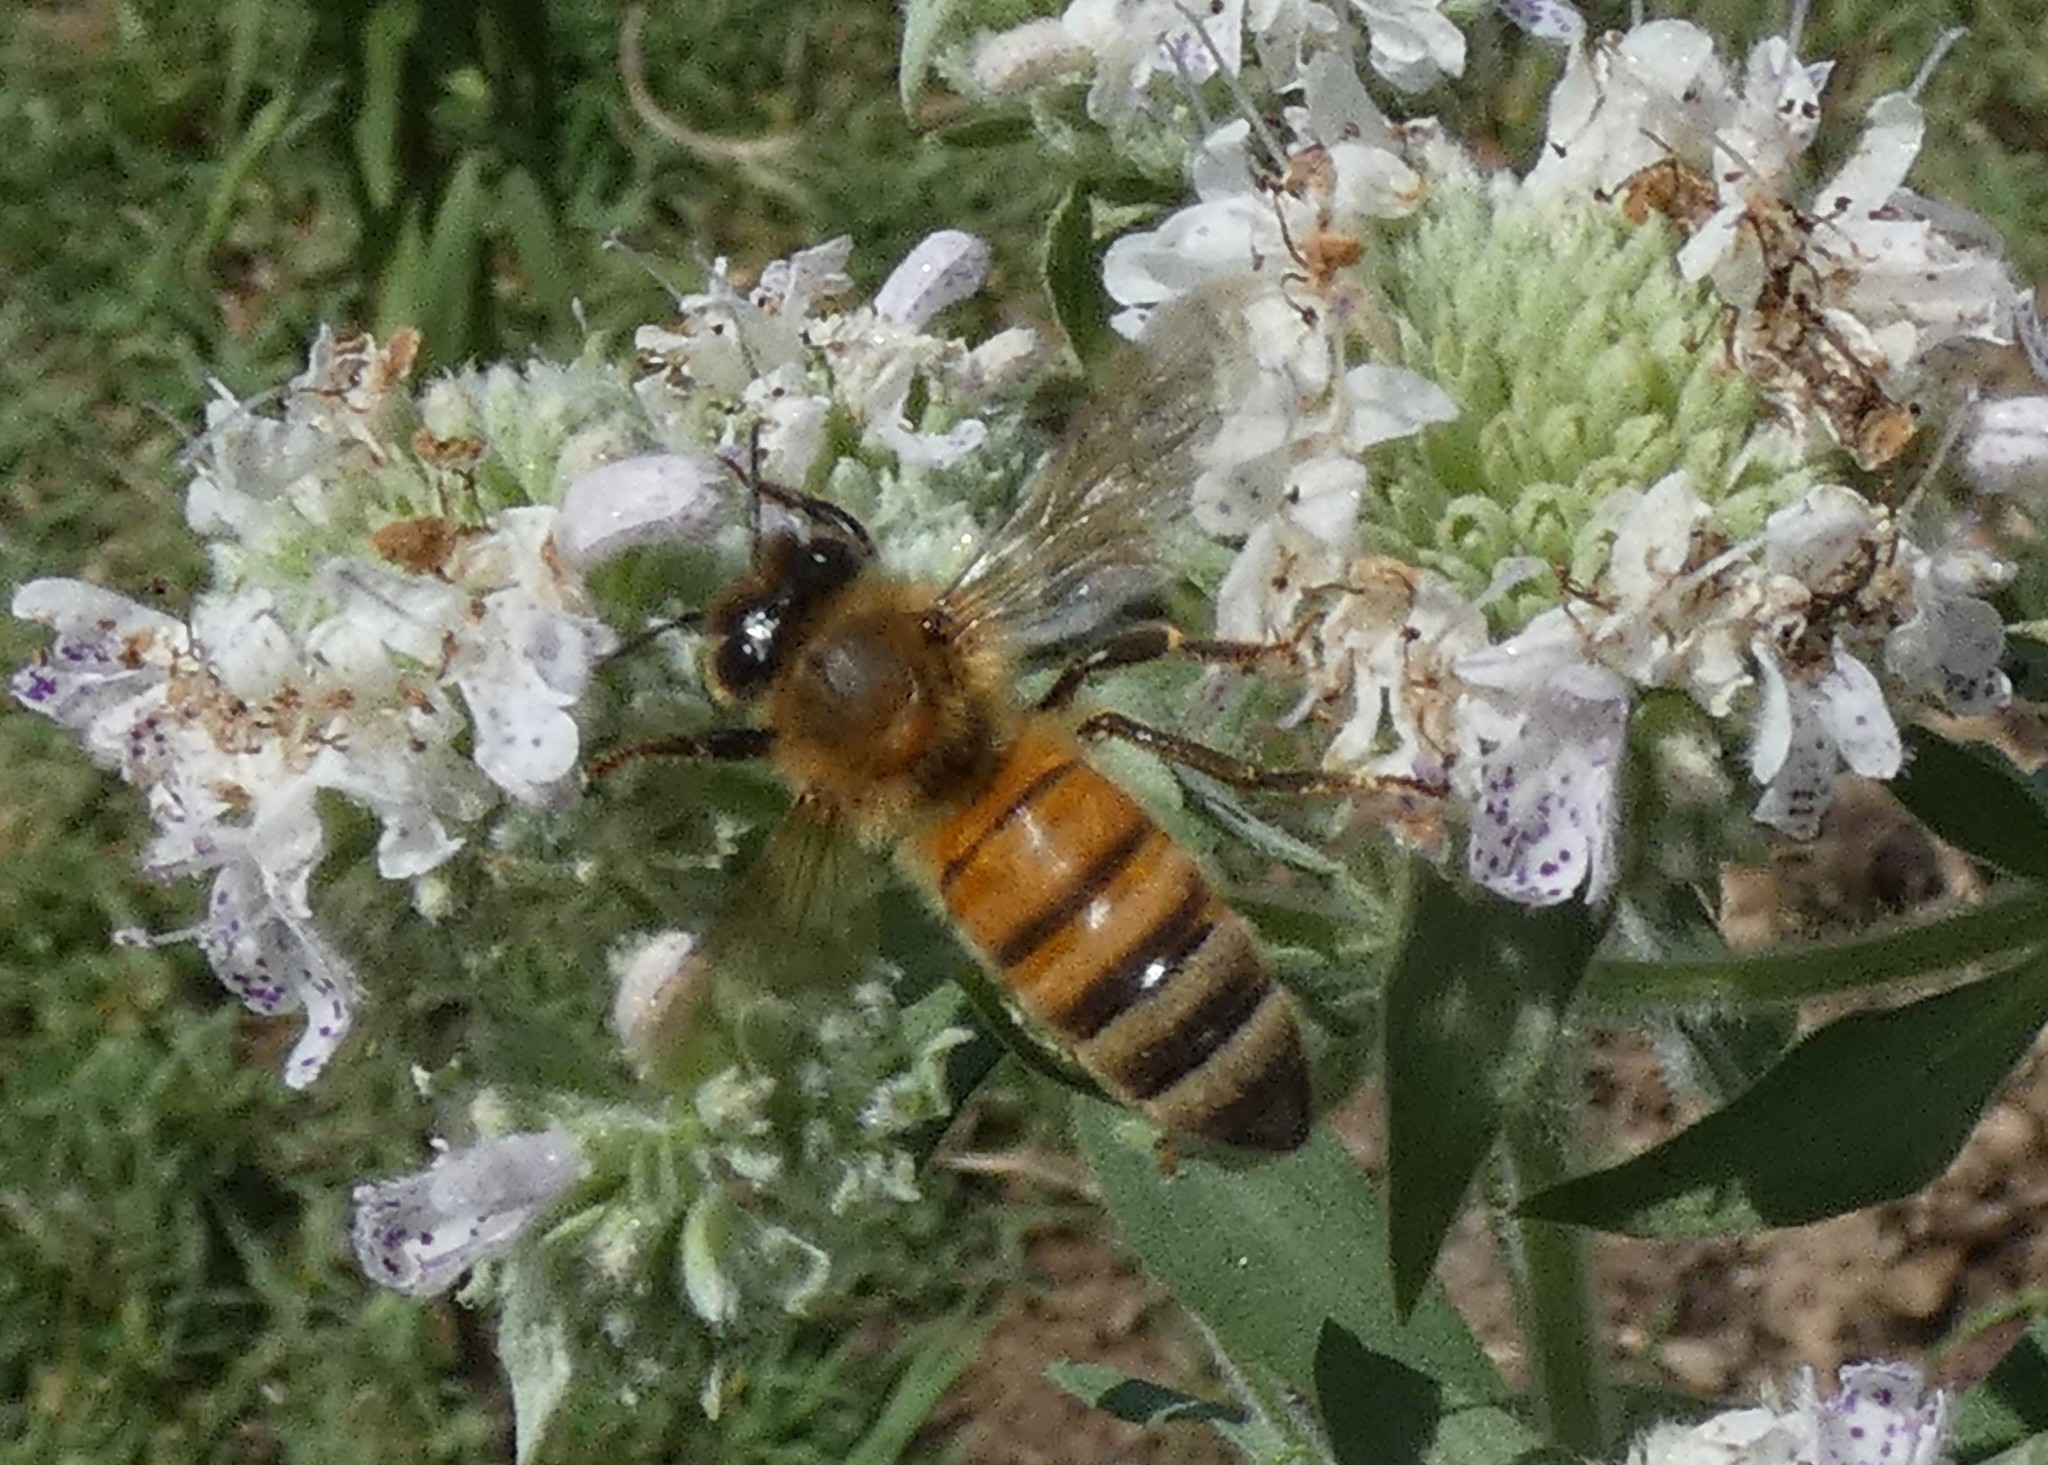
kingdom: Animalia
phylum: Arthropoda
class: Insecta
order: Hymenoptera
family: Apidae
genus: Apis
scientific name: Apis mellifera
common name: Honey bee
